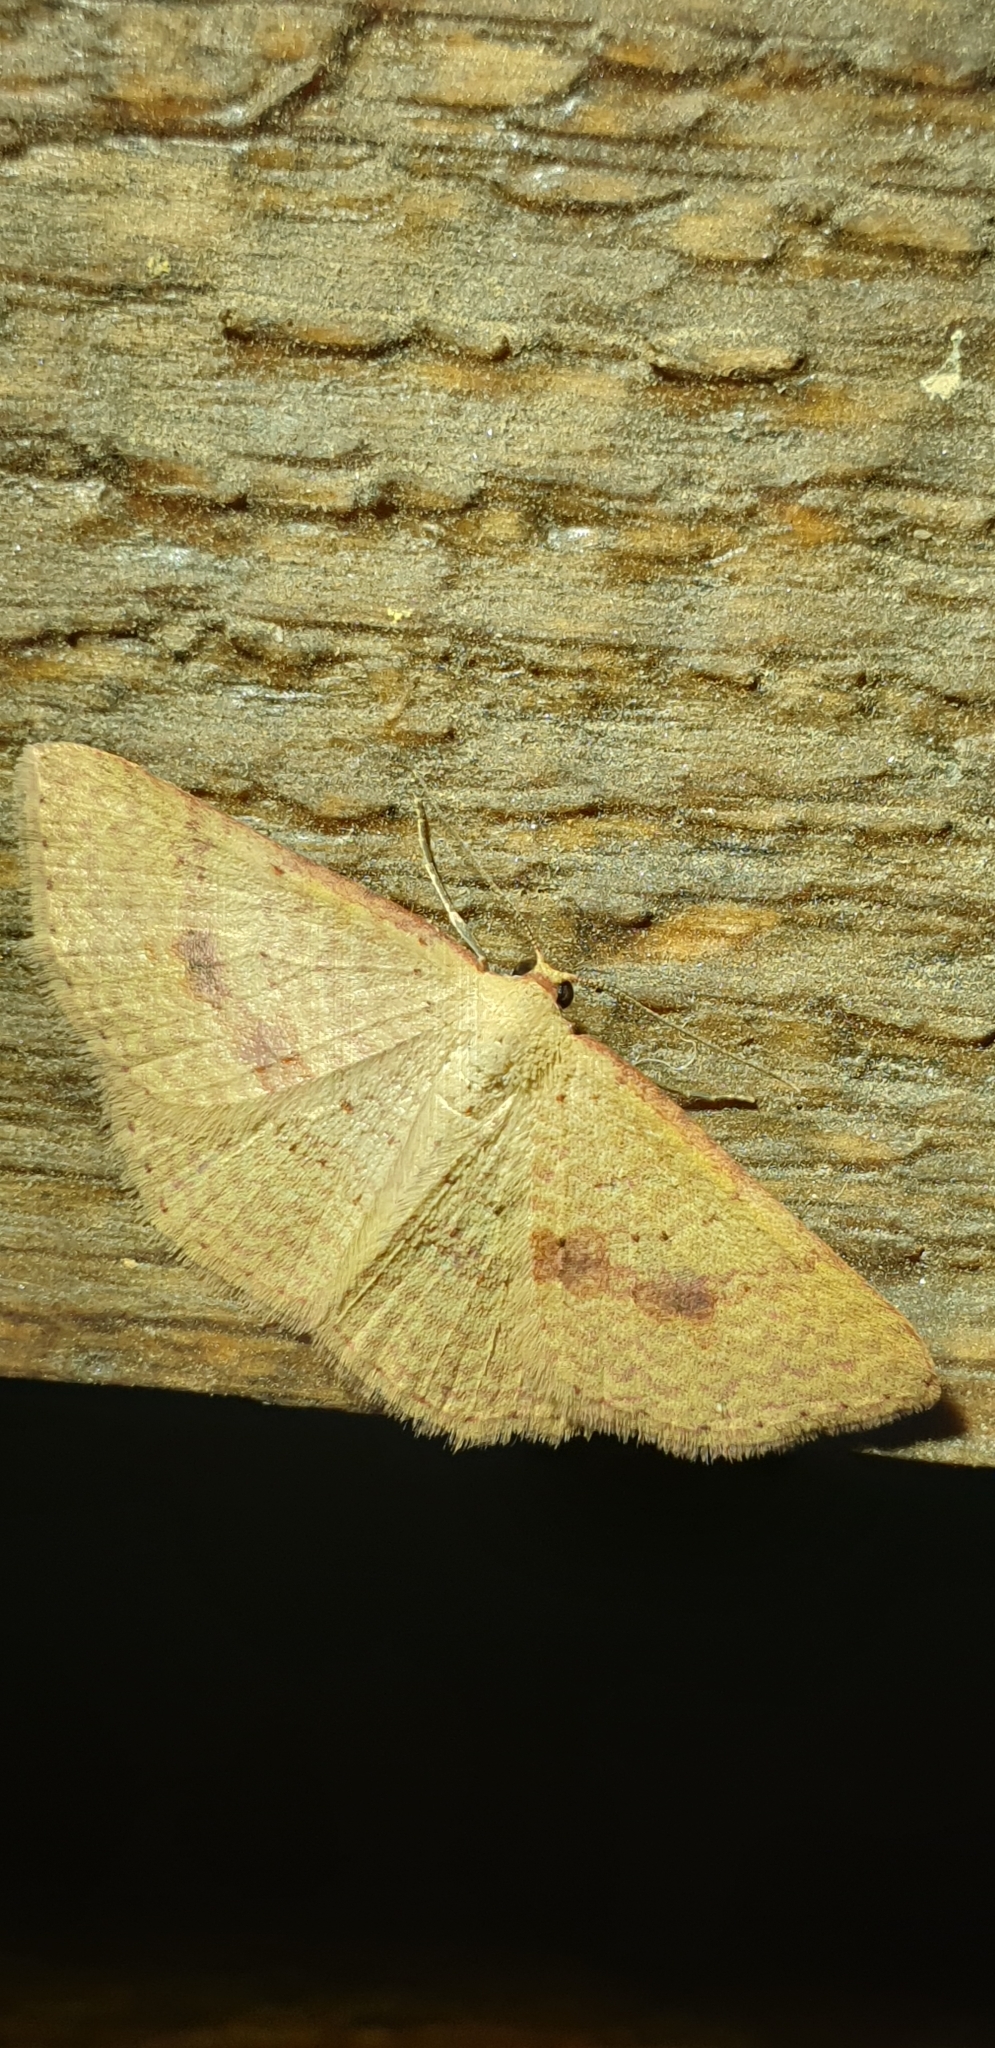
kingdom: Animalia
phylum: Arthropoda
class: Insecta
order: Lepidoptera
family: Geometridae
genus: Epicyme
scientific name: Epicyme rubropunctaria
